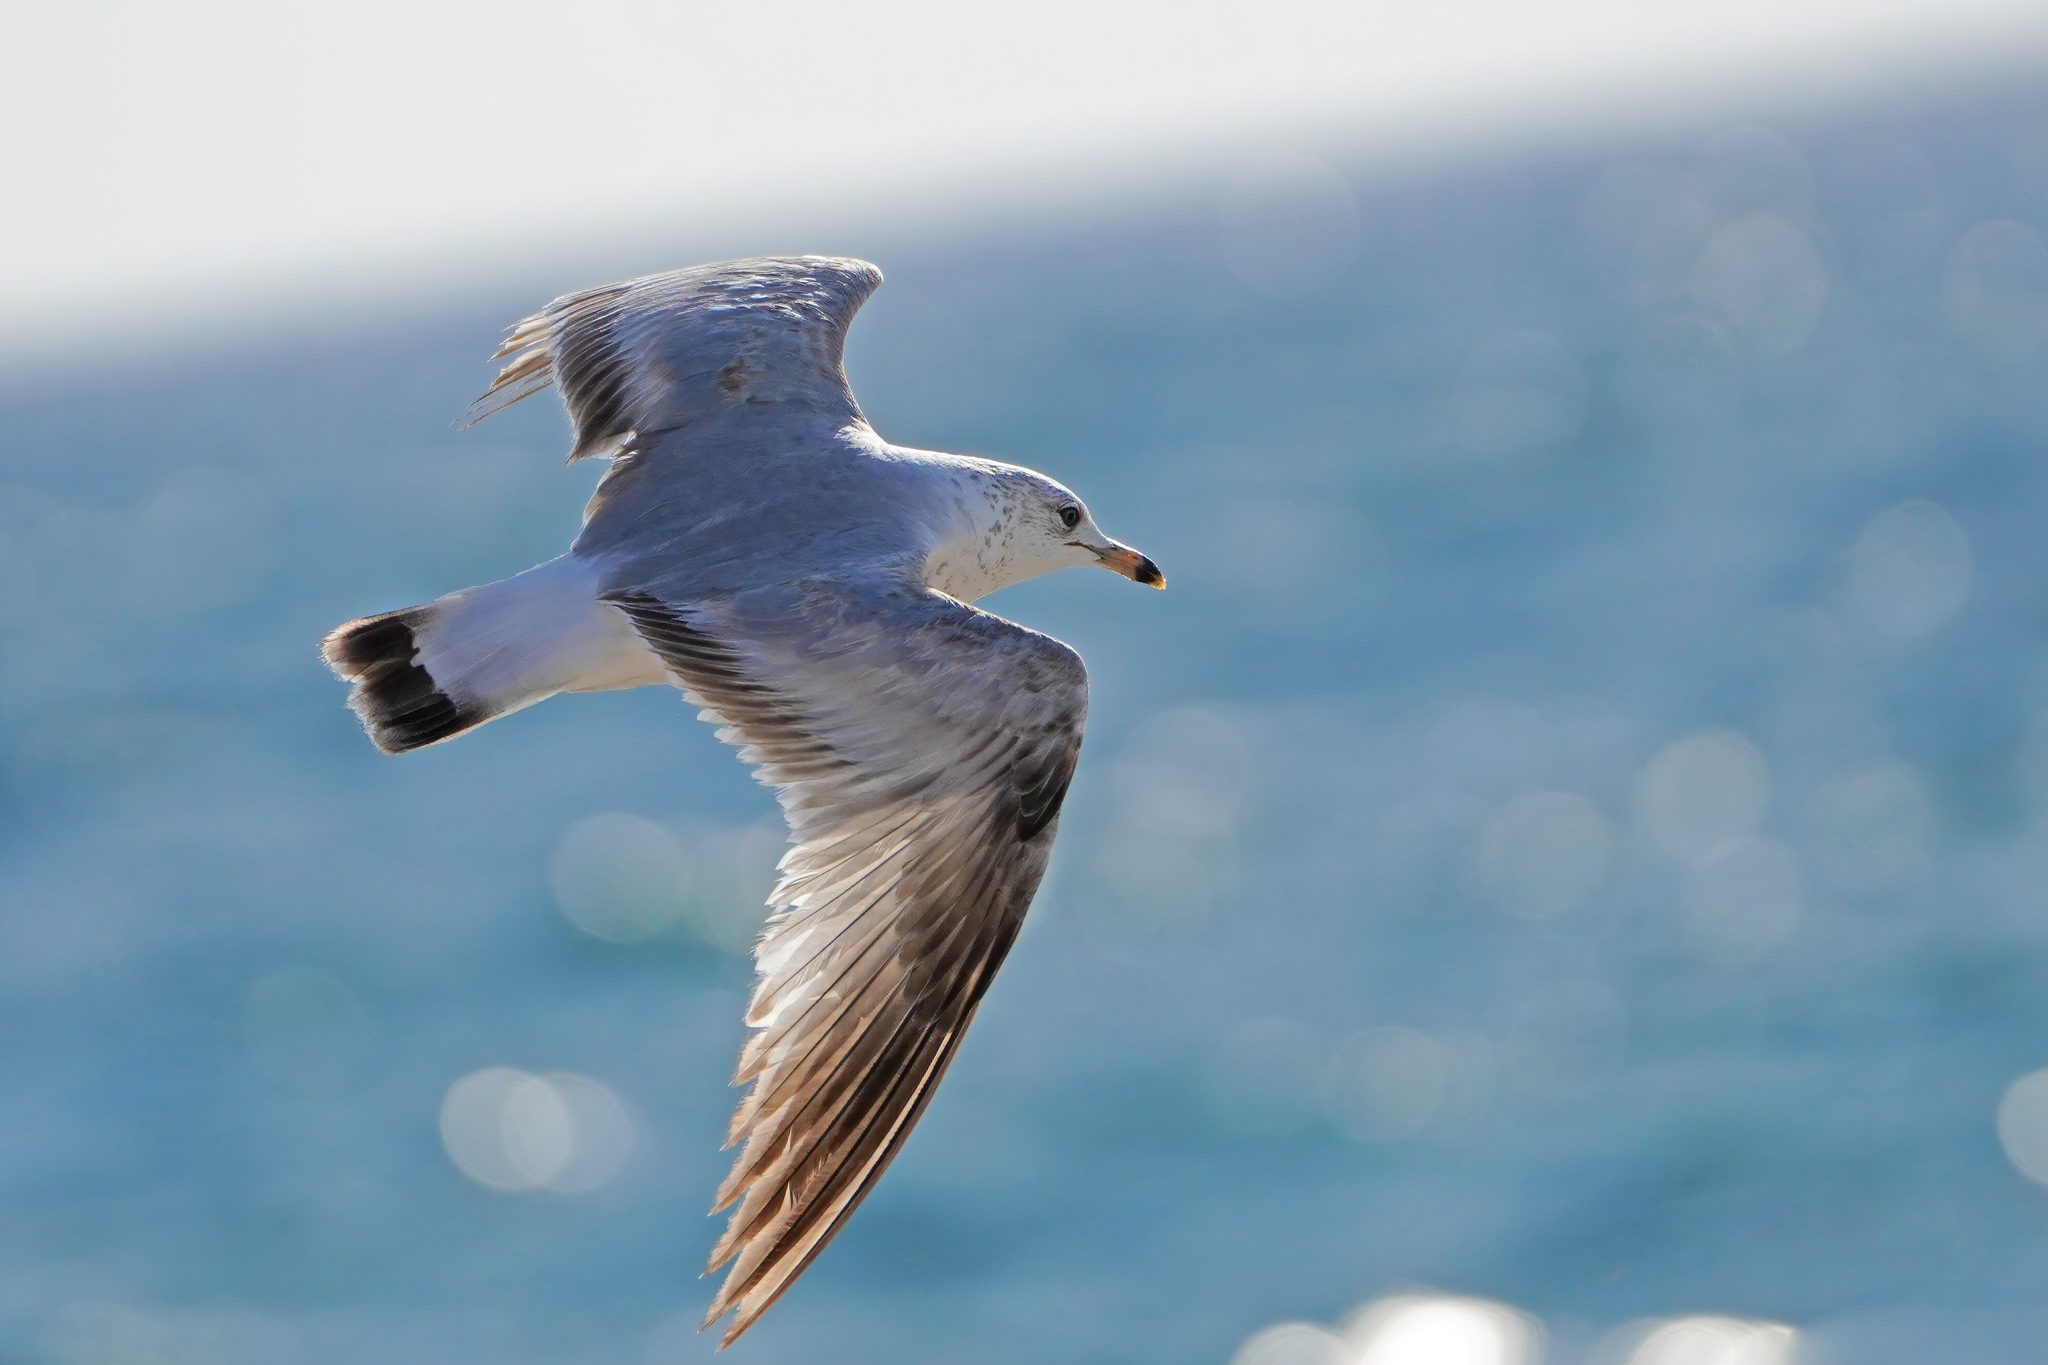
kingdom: Animalia
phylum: Chordata
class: Aves
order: Charadriiformes
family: Laridae
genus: Larus
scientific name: Larus delawarensis
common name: Ring-billed gull
